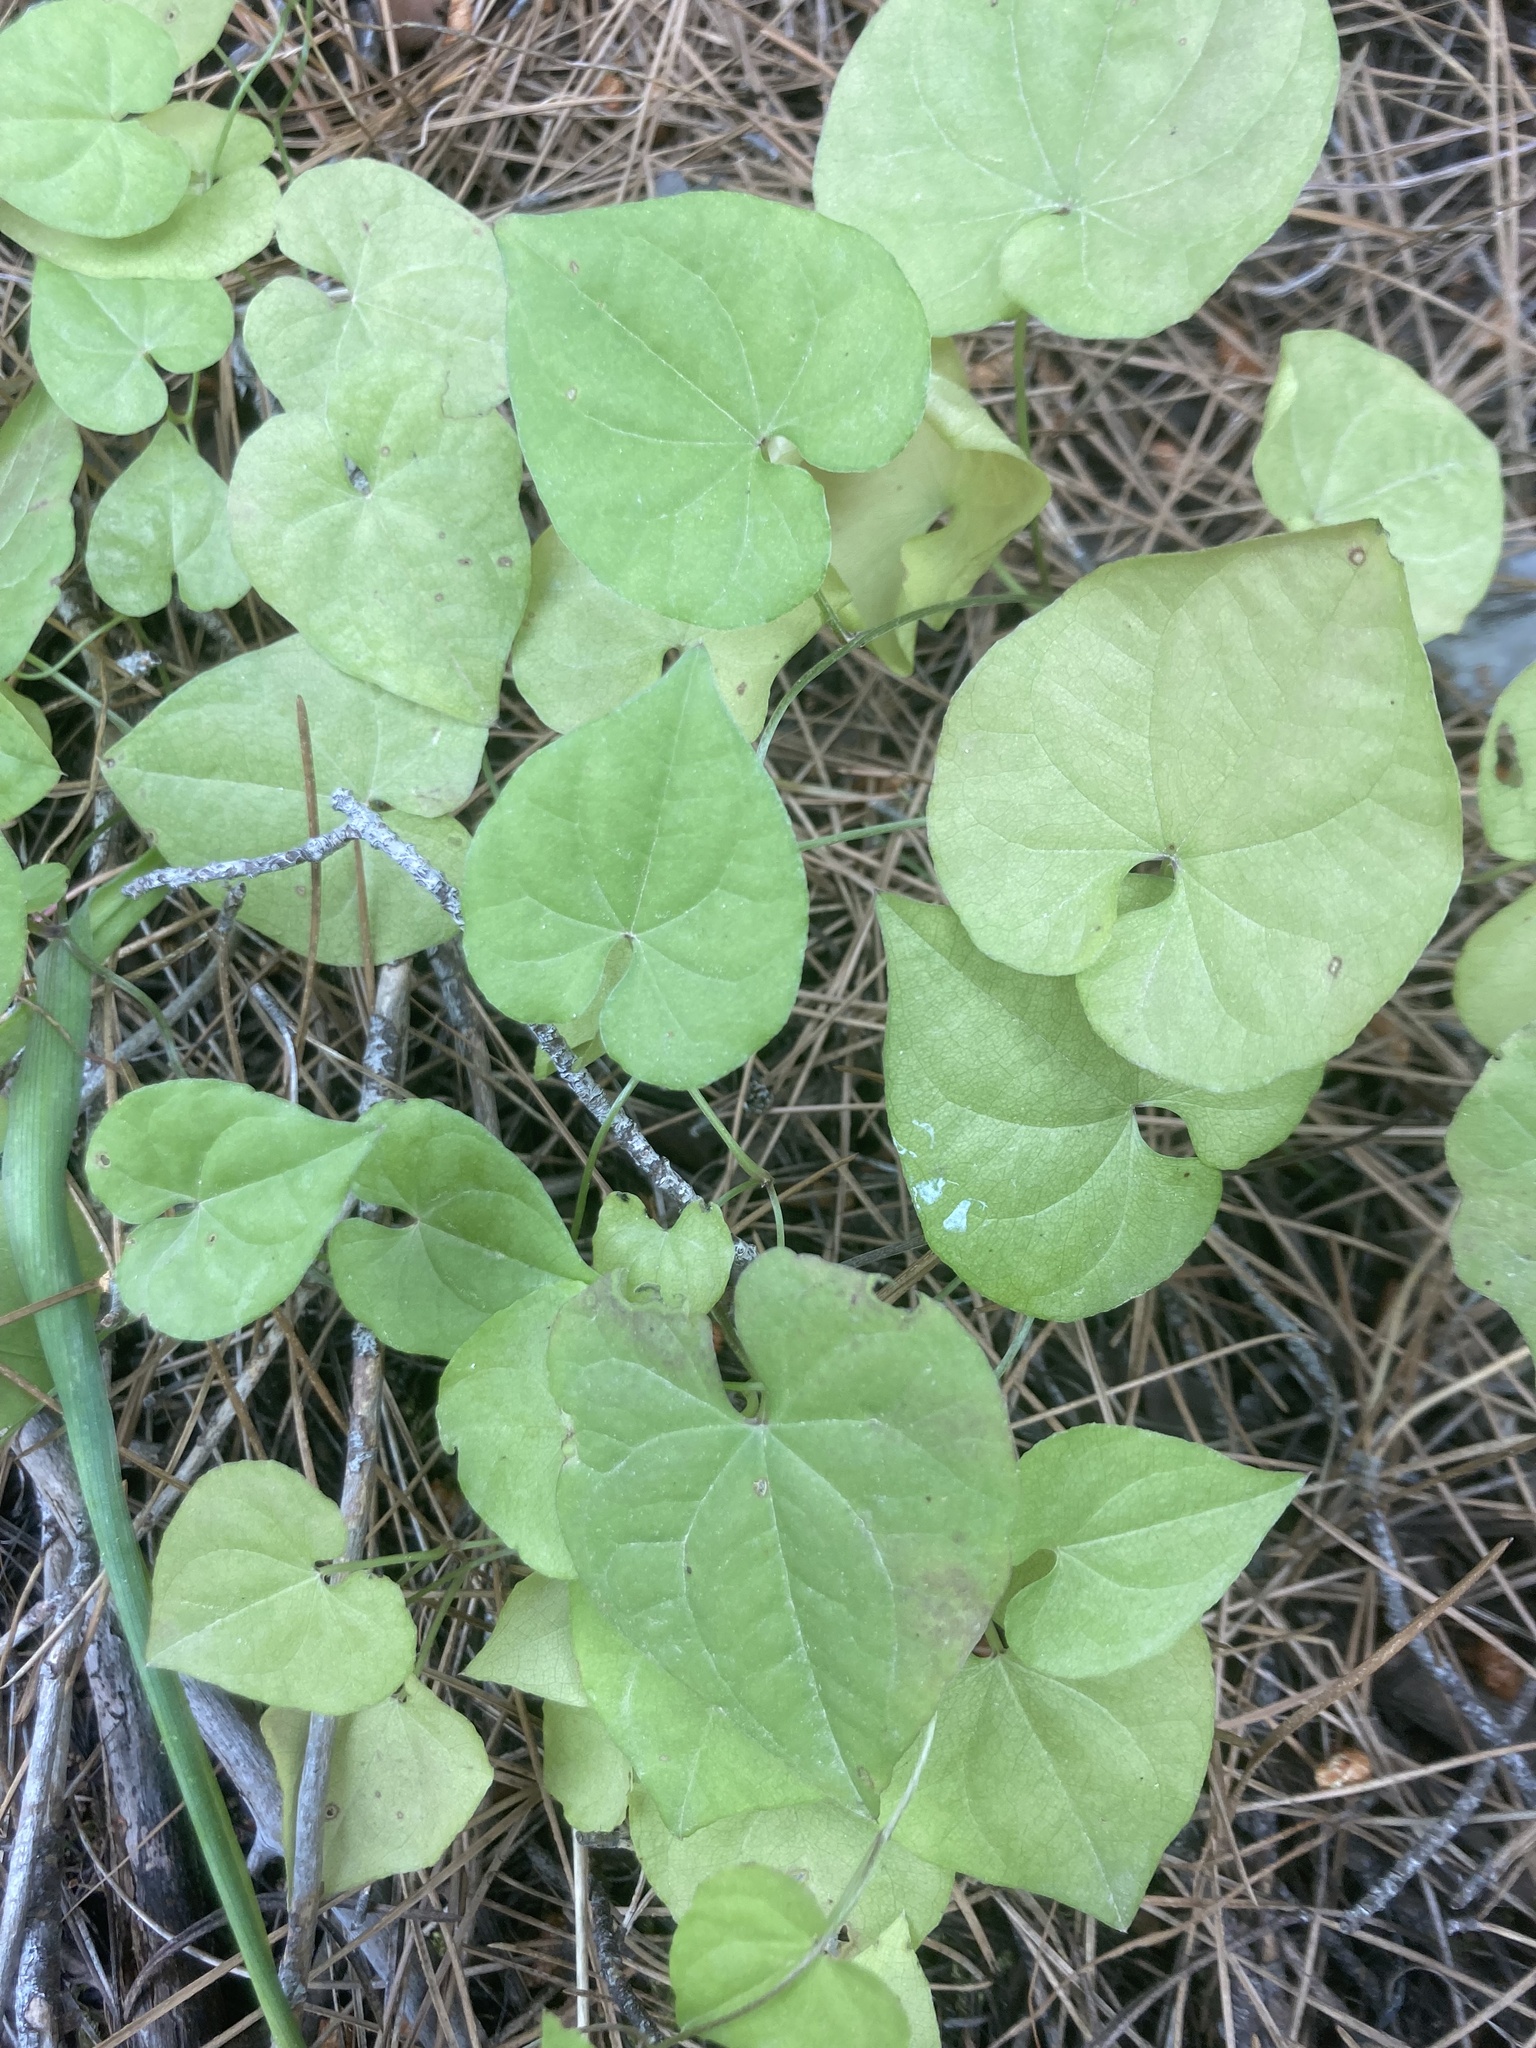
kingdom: Plantae
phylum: Tracheophyta
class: Liliopsida
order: Dioscoreales
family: Dioscoreaceae
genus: Dioscorea
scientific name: Dioscorea communis
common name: Black-bindweed
